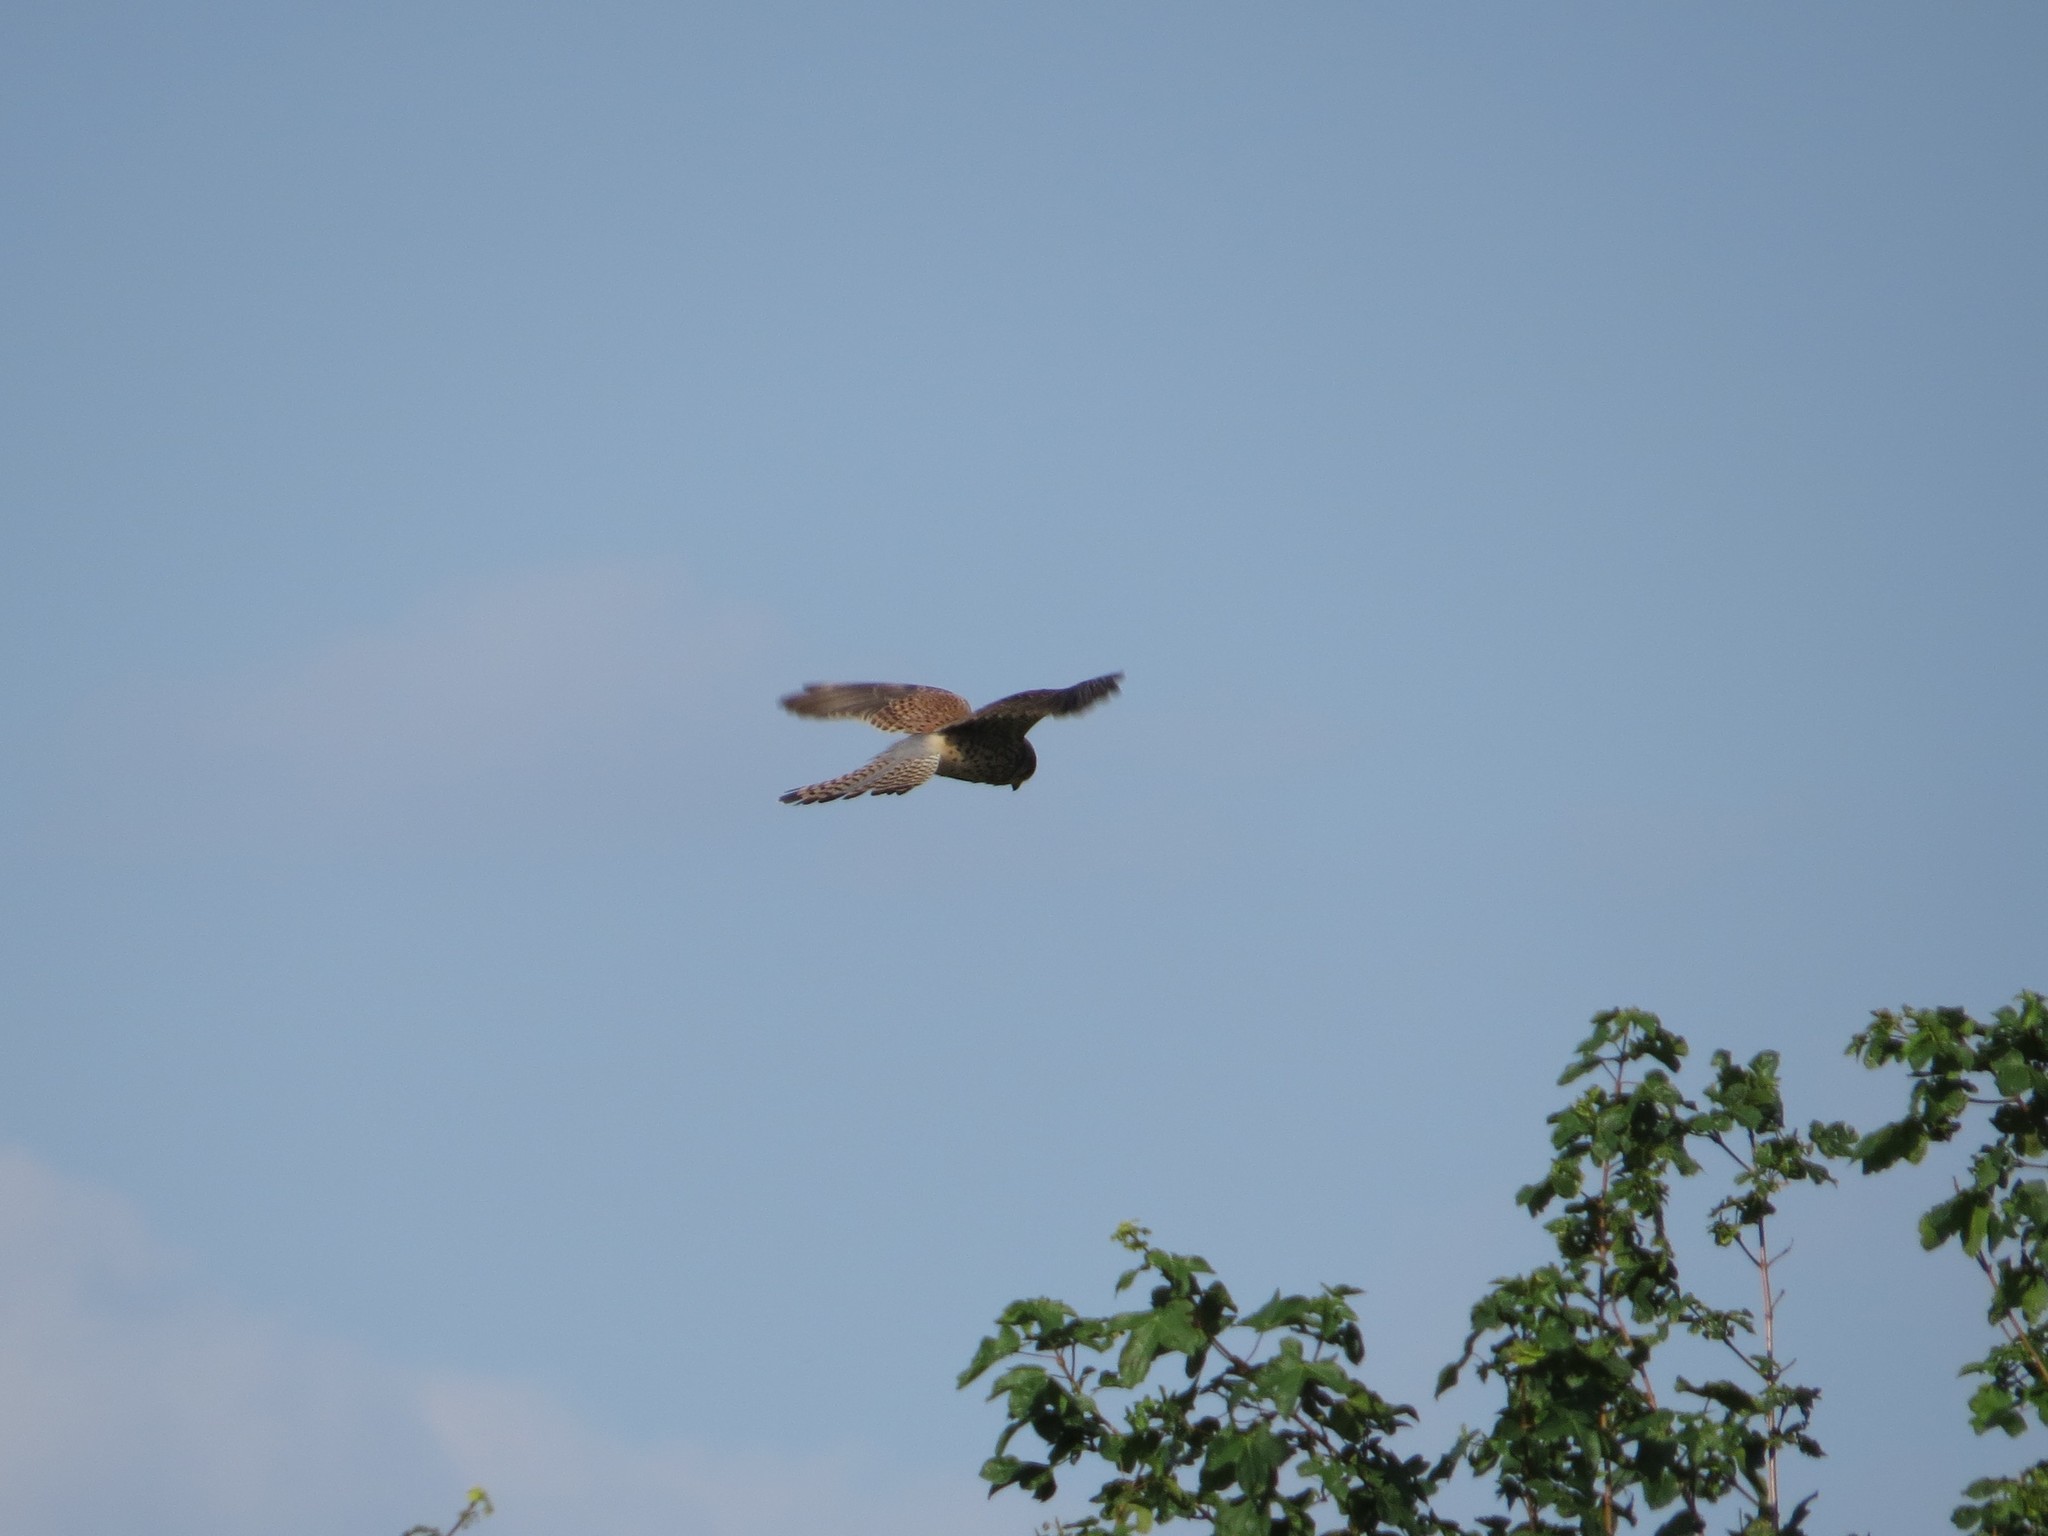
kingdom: Animalia
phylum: Chordata
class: Aves
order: Falconiformes
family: Falconidae
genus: Falco
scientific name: Falco tinnunculus
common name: Common kestrel
